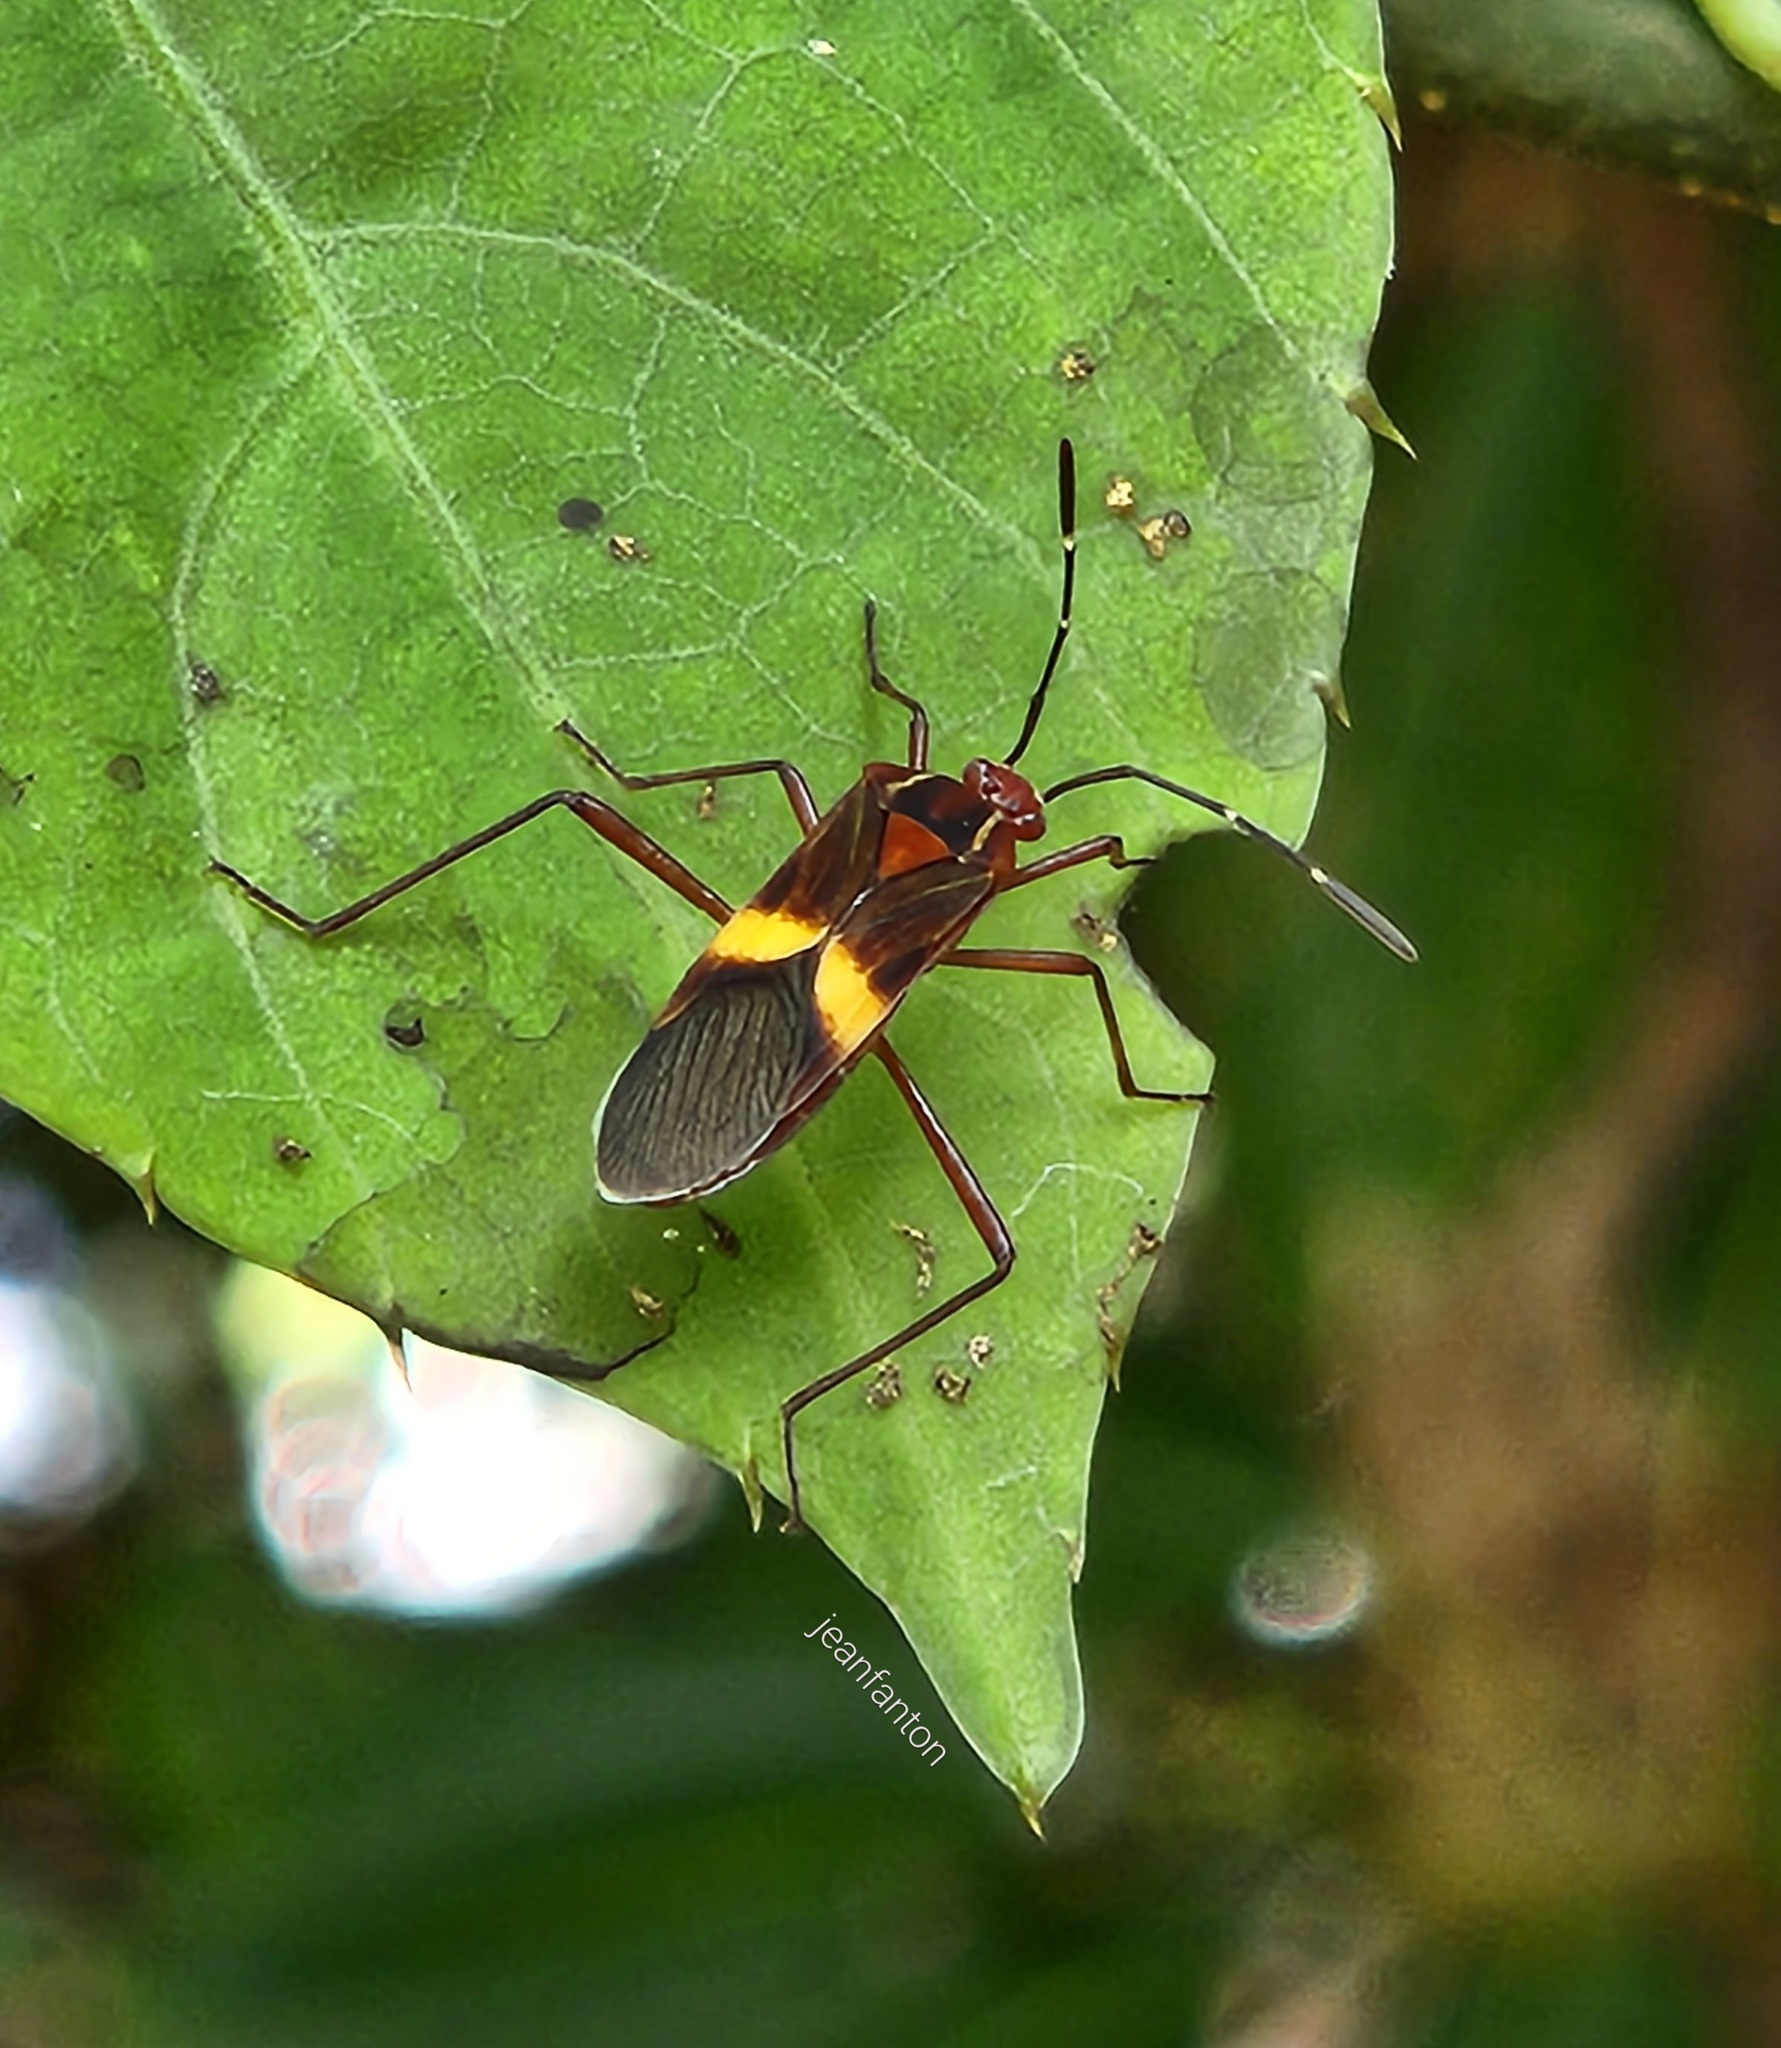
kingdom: Animalia
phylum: Arthropoda
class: Insecta
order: Hemiptera
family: Coreidae
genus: Hypselonotus
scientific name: Hypselonotus interruptus
